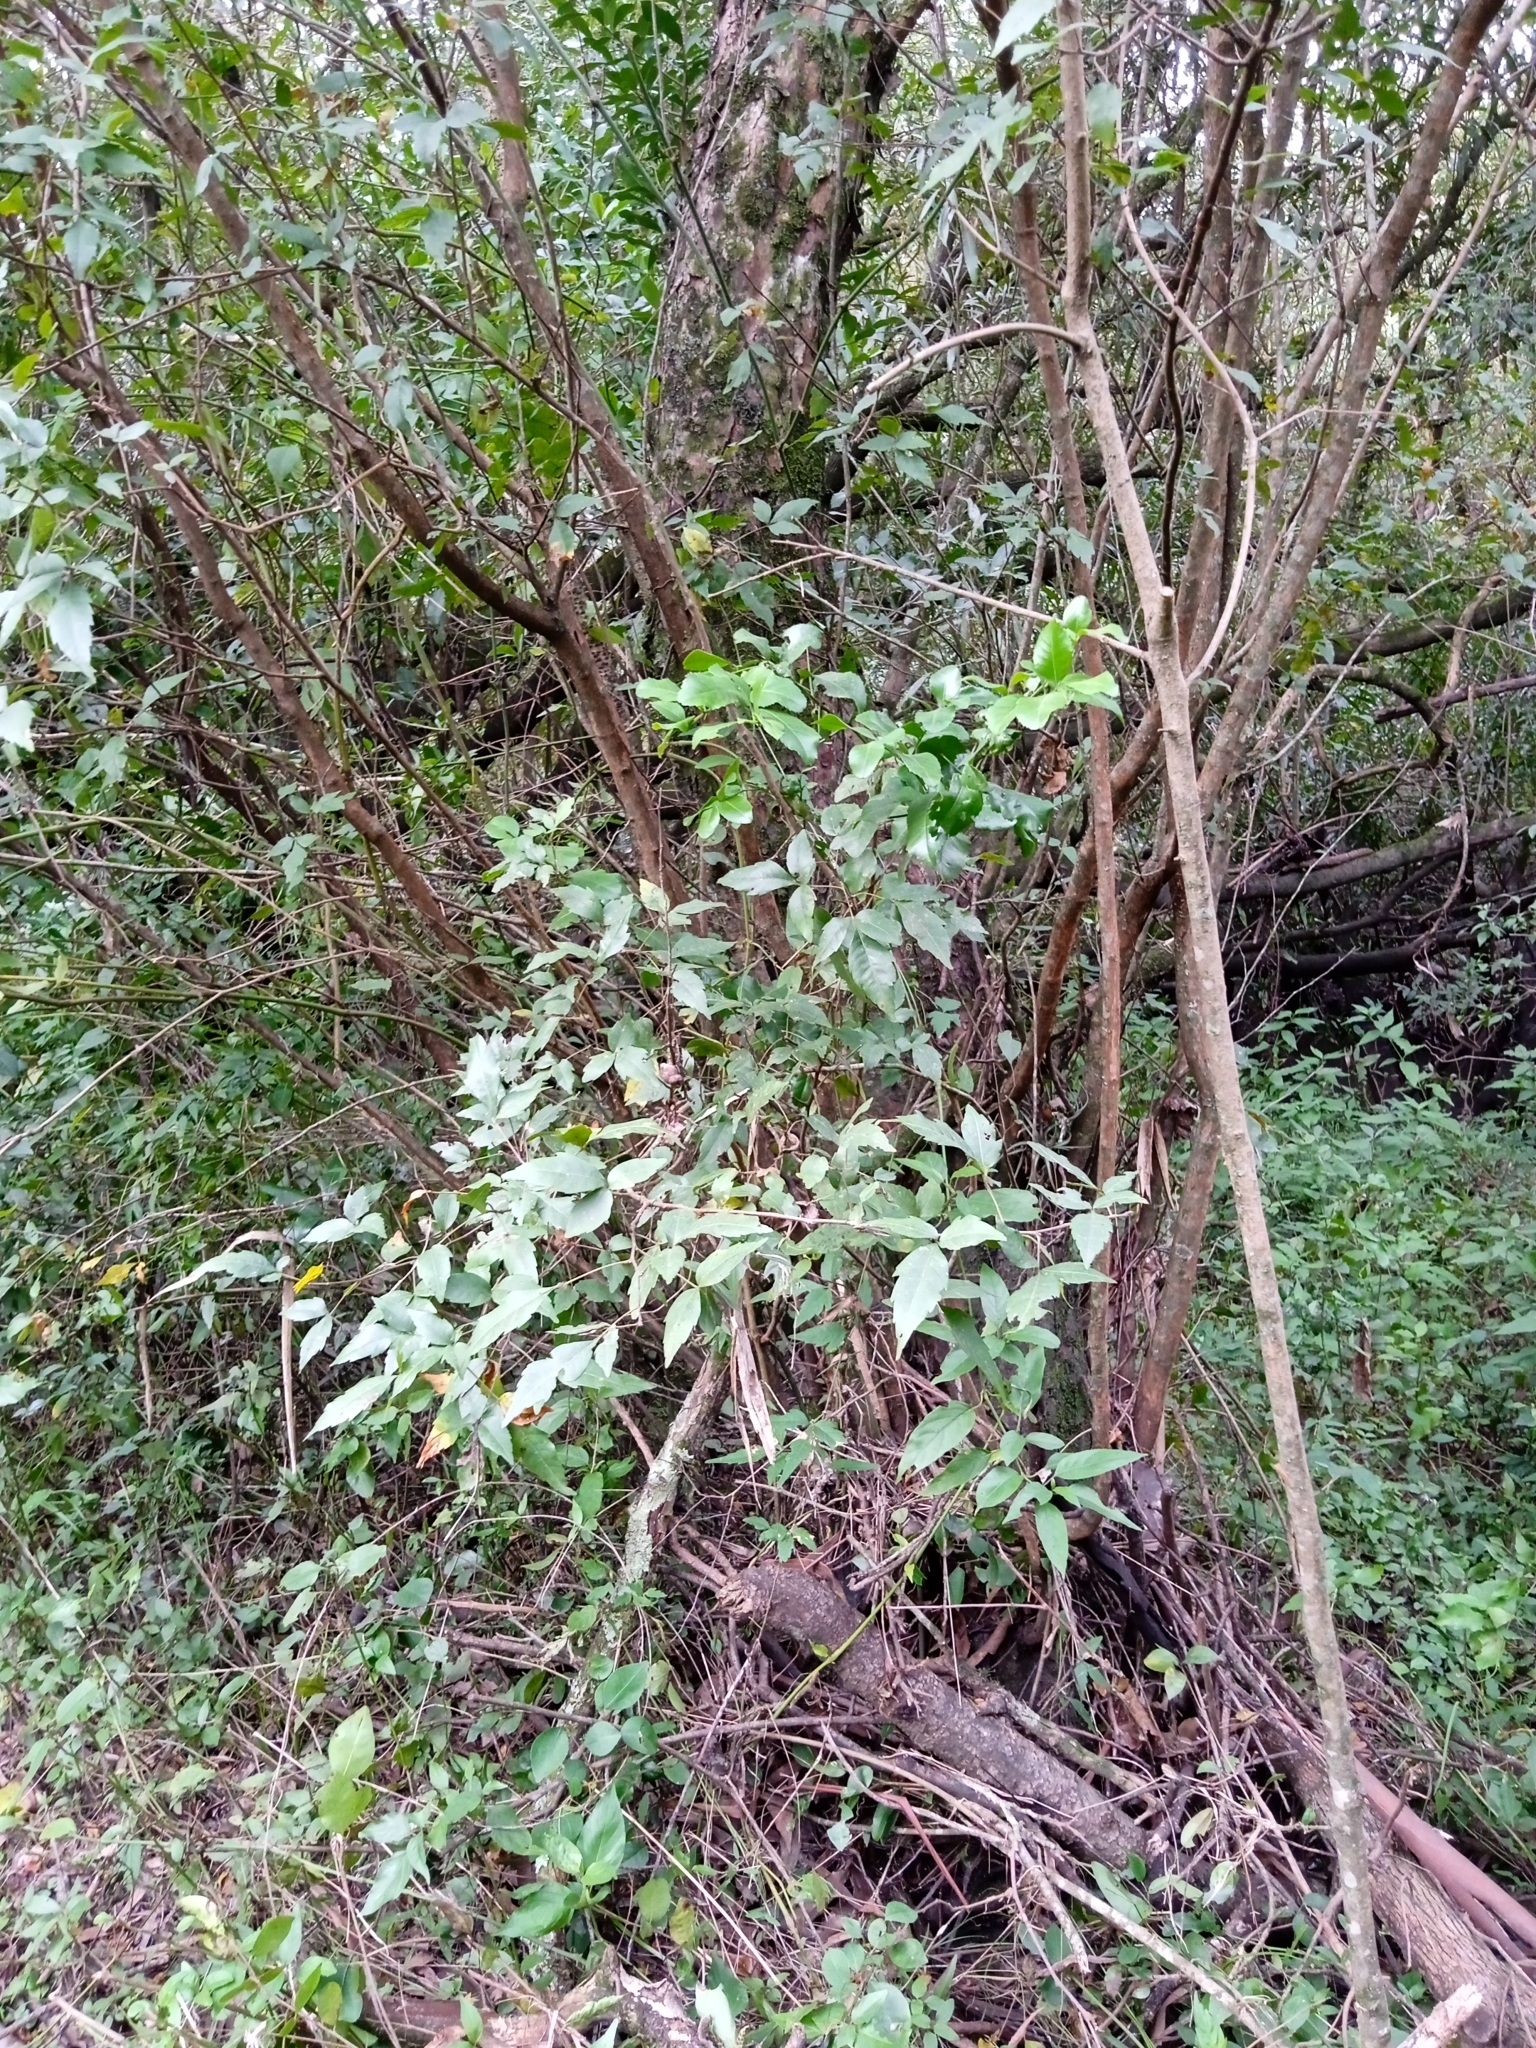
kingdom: Plantae
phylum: Tracheophyta
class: Magnoliopsida
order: Sapindales
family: Sapindaceae
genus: Allophylus
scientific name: Allophylus edulis
